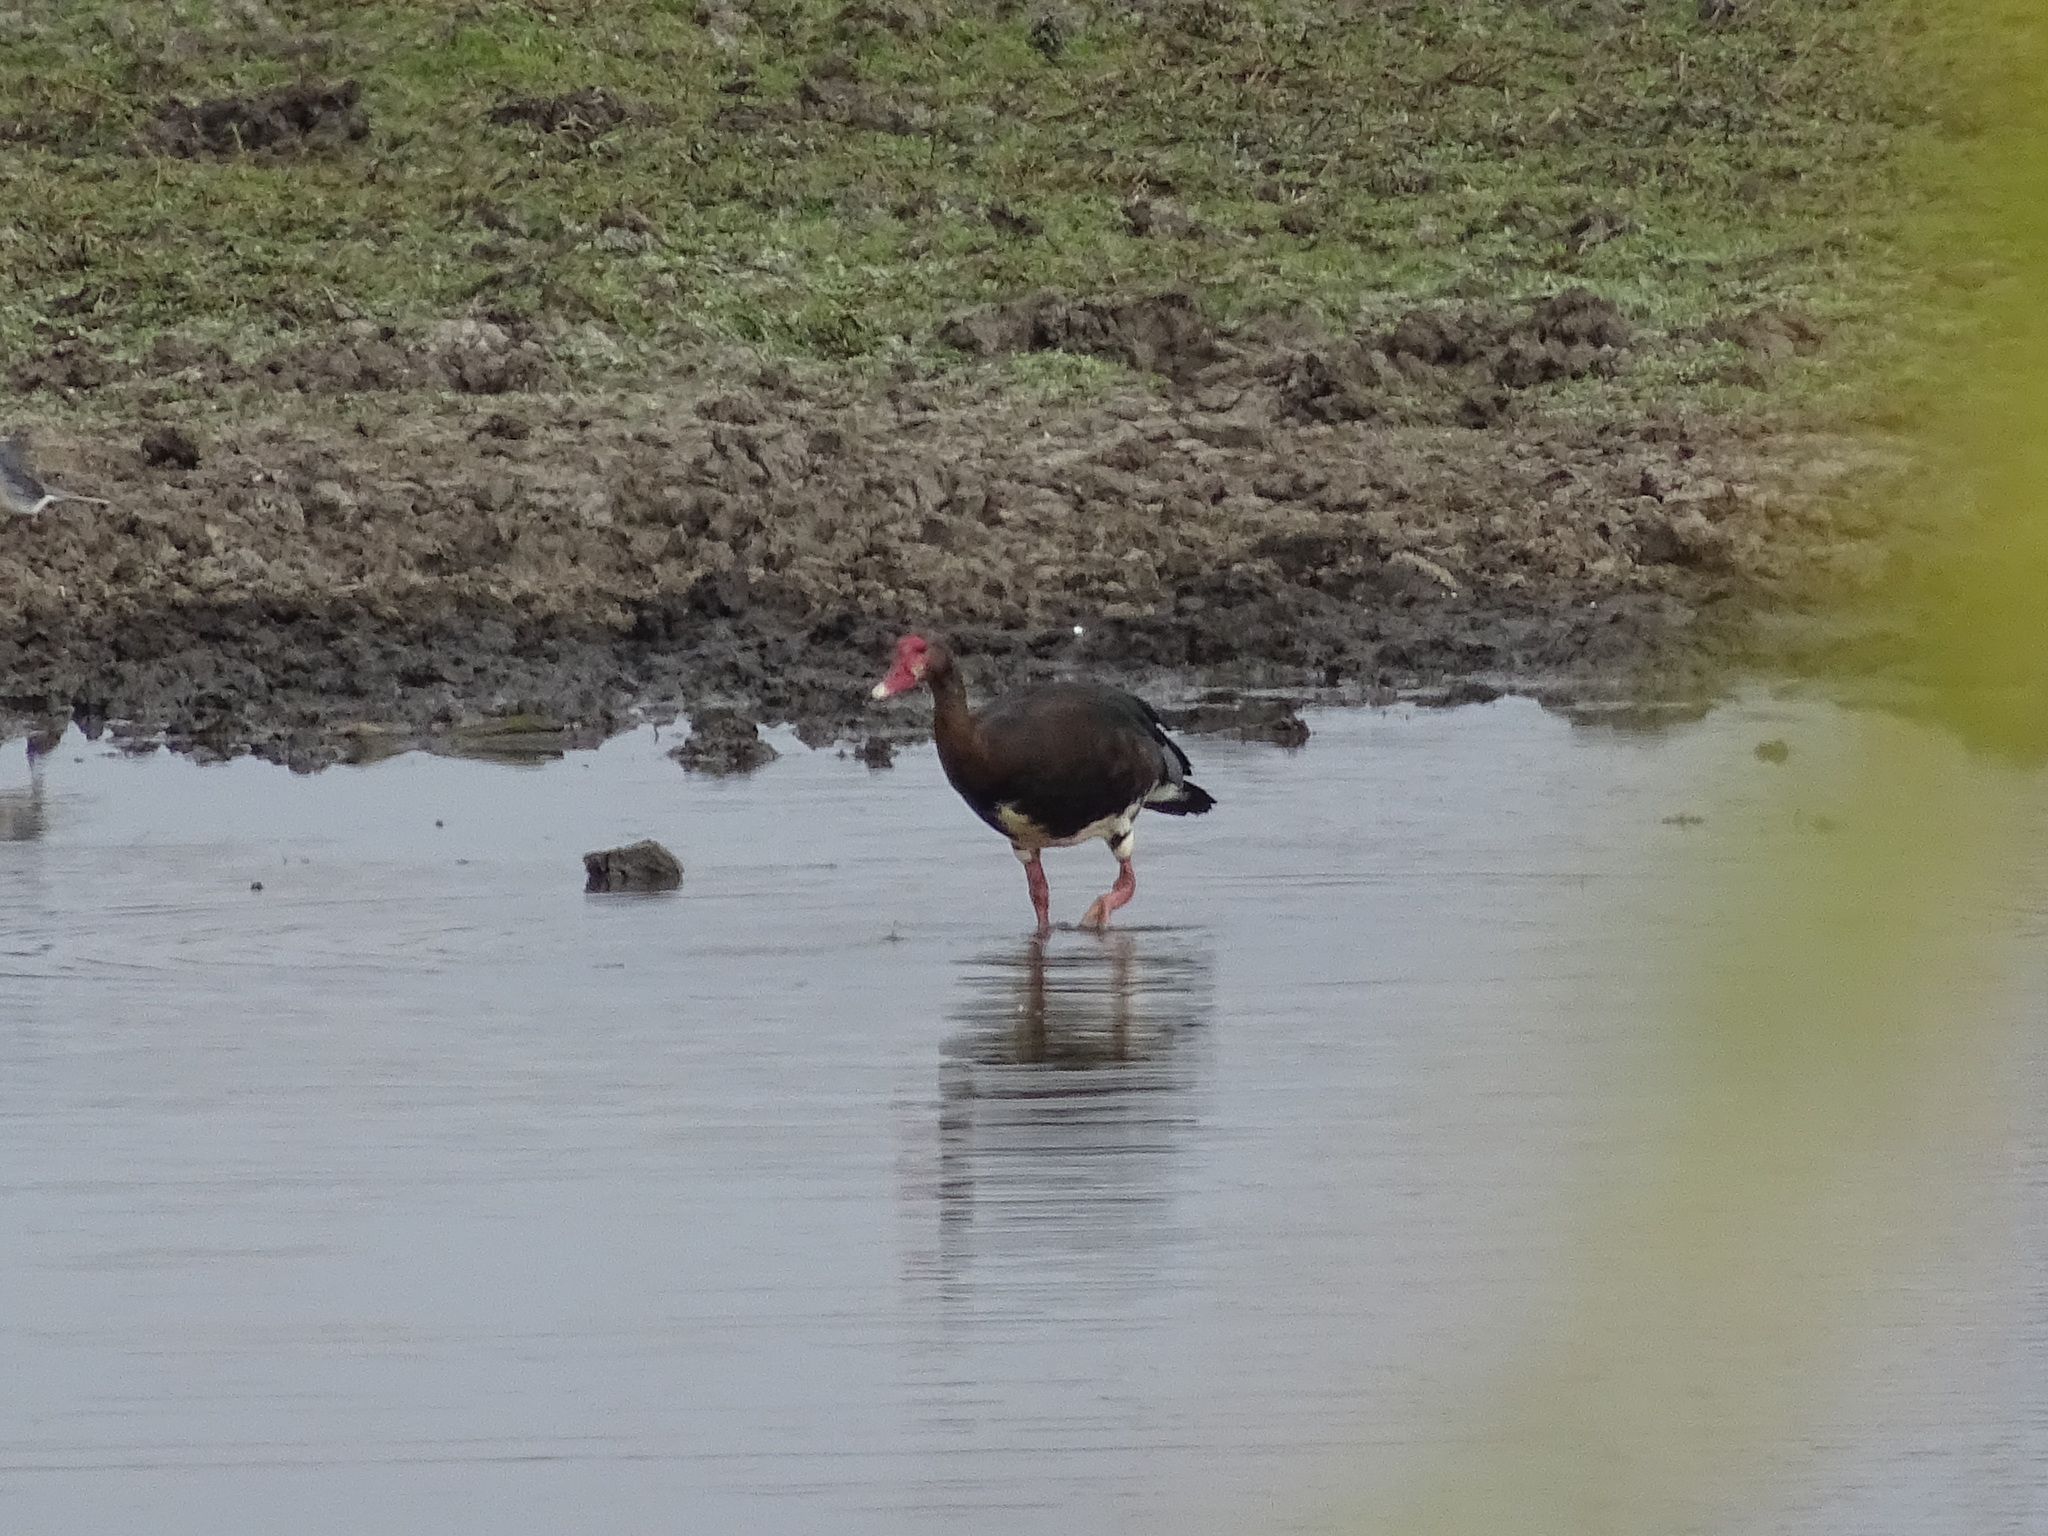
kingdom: Animalia
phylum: Chordata
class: Aves
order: Anseriformes
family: Anatidae
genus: Plectropterus
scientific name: Plectropterus gambensis
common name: Spur-winged goose
